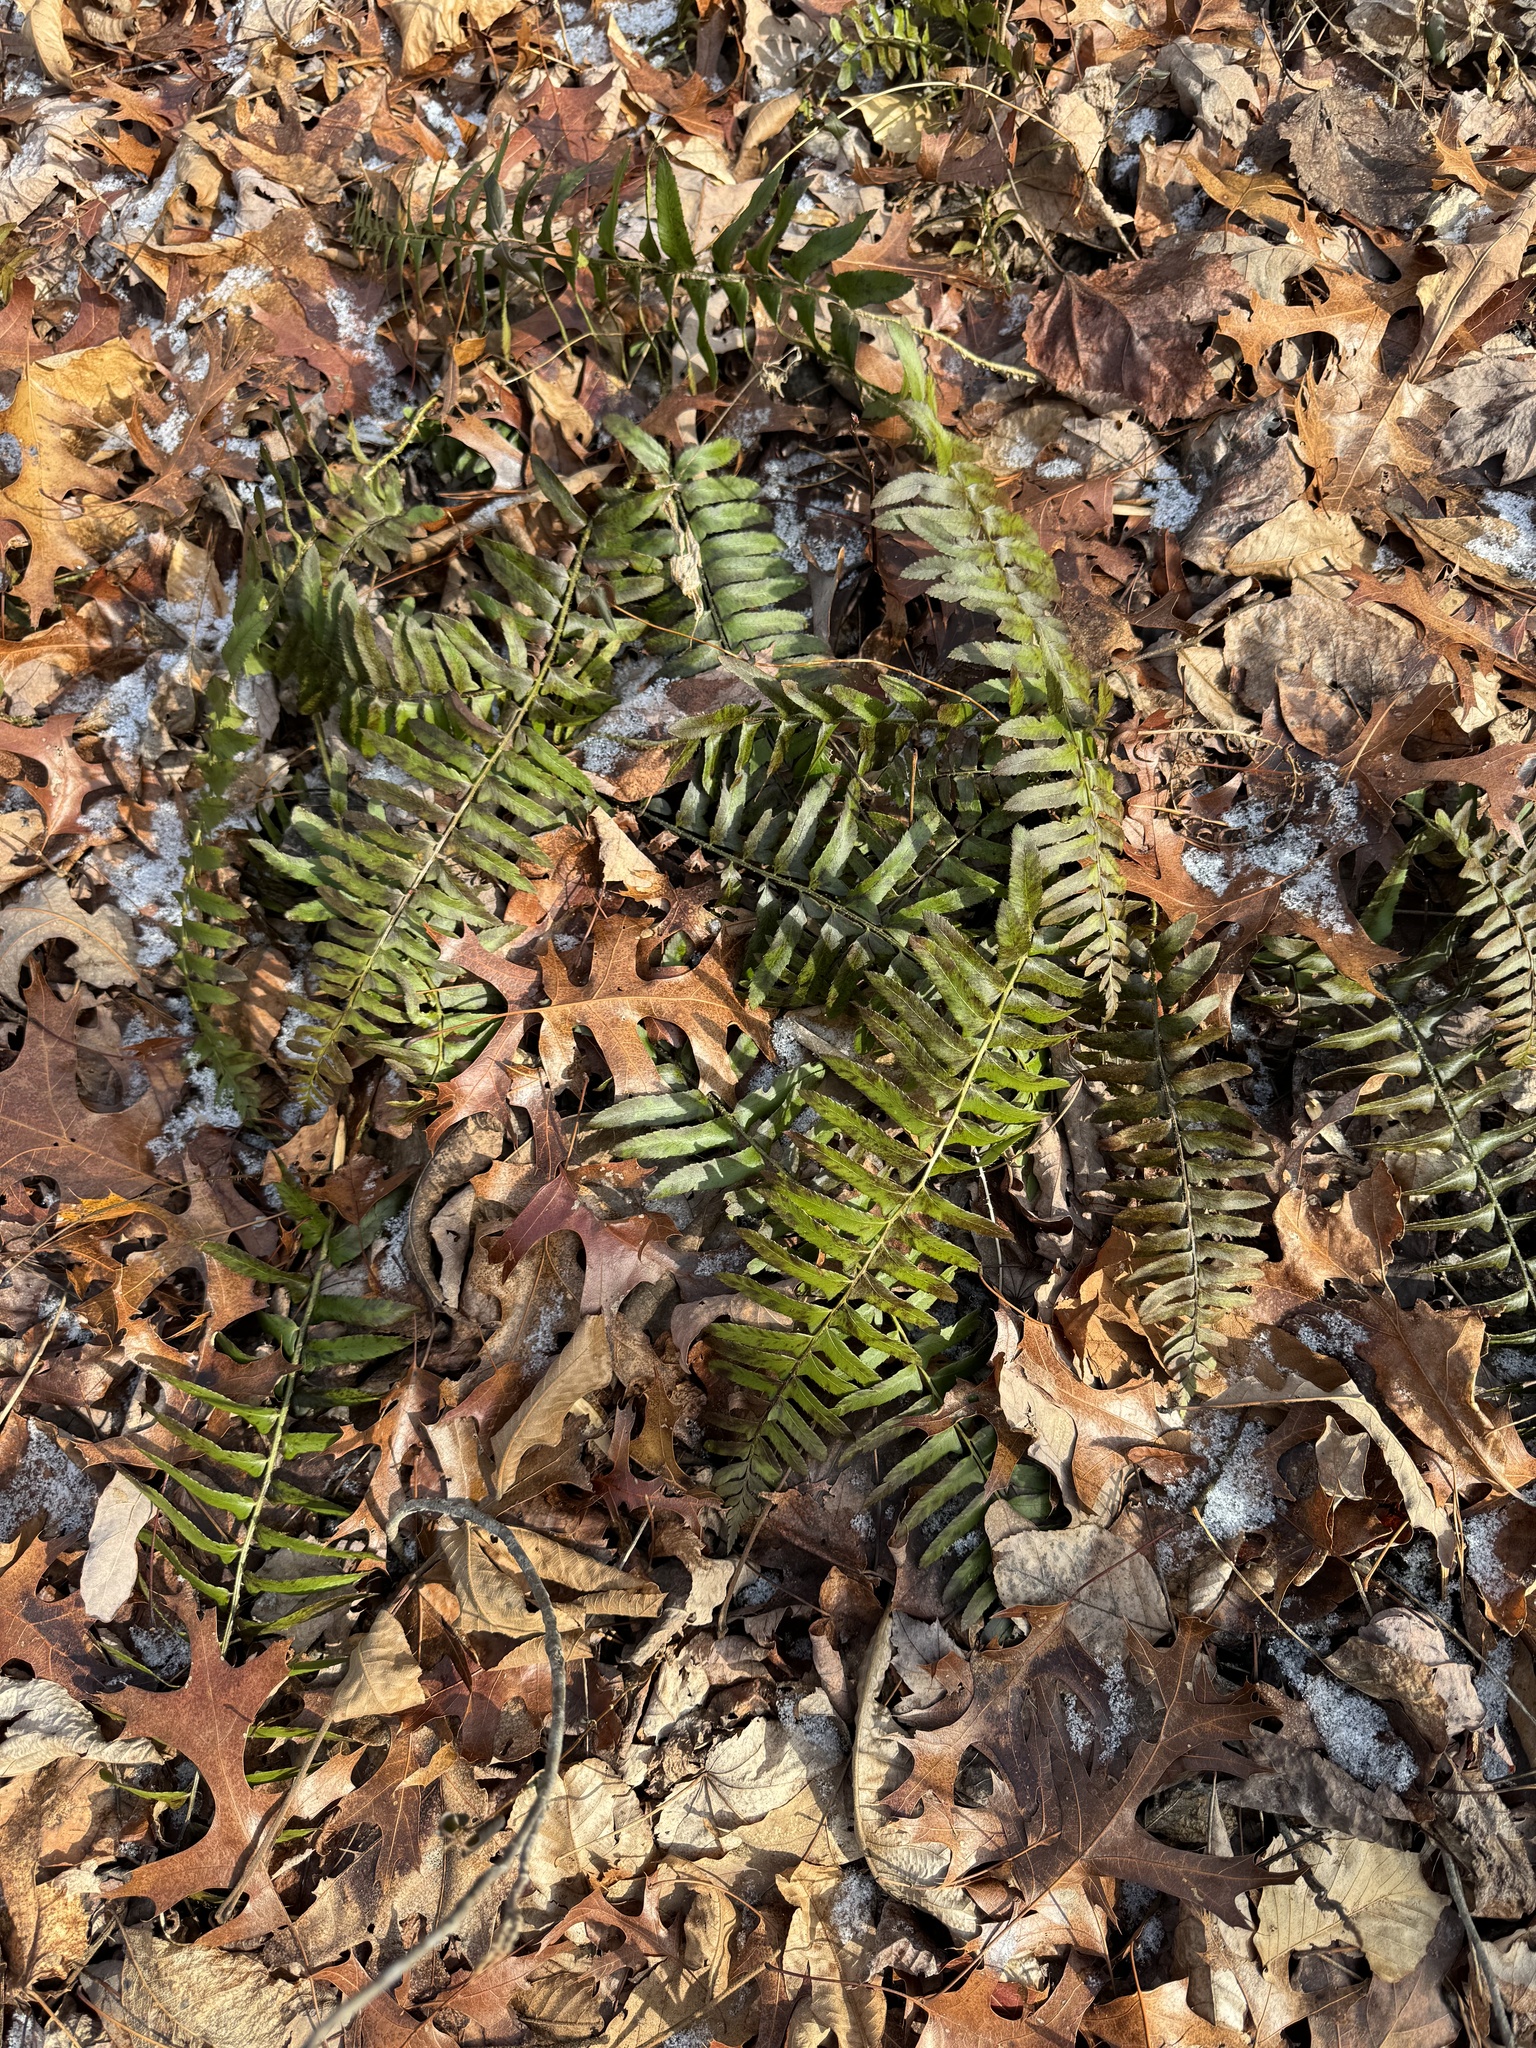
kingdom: Plantae
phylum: Tracheophyta
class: Polypodiopsida
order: Polypodiales
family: Dryopteridaceae
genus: Polystichum
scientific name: Polystichum acrostichoides
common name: Christmas fern
